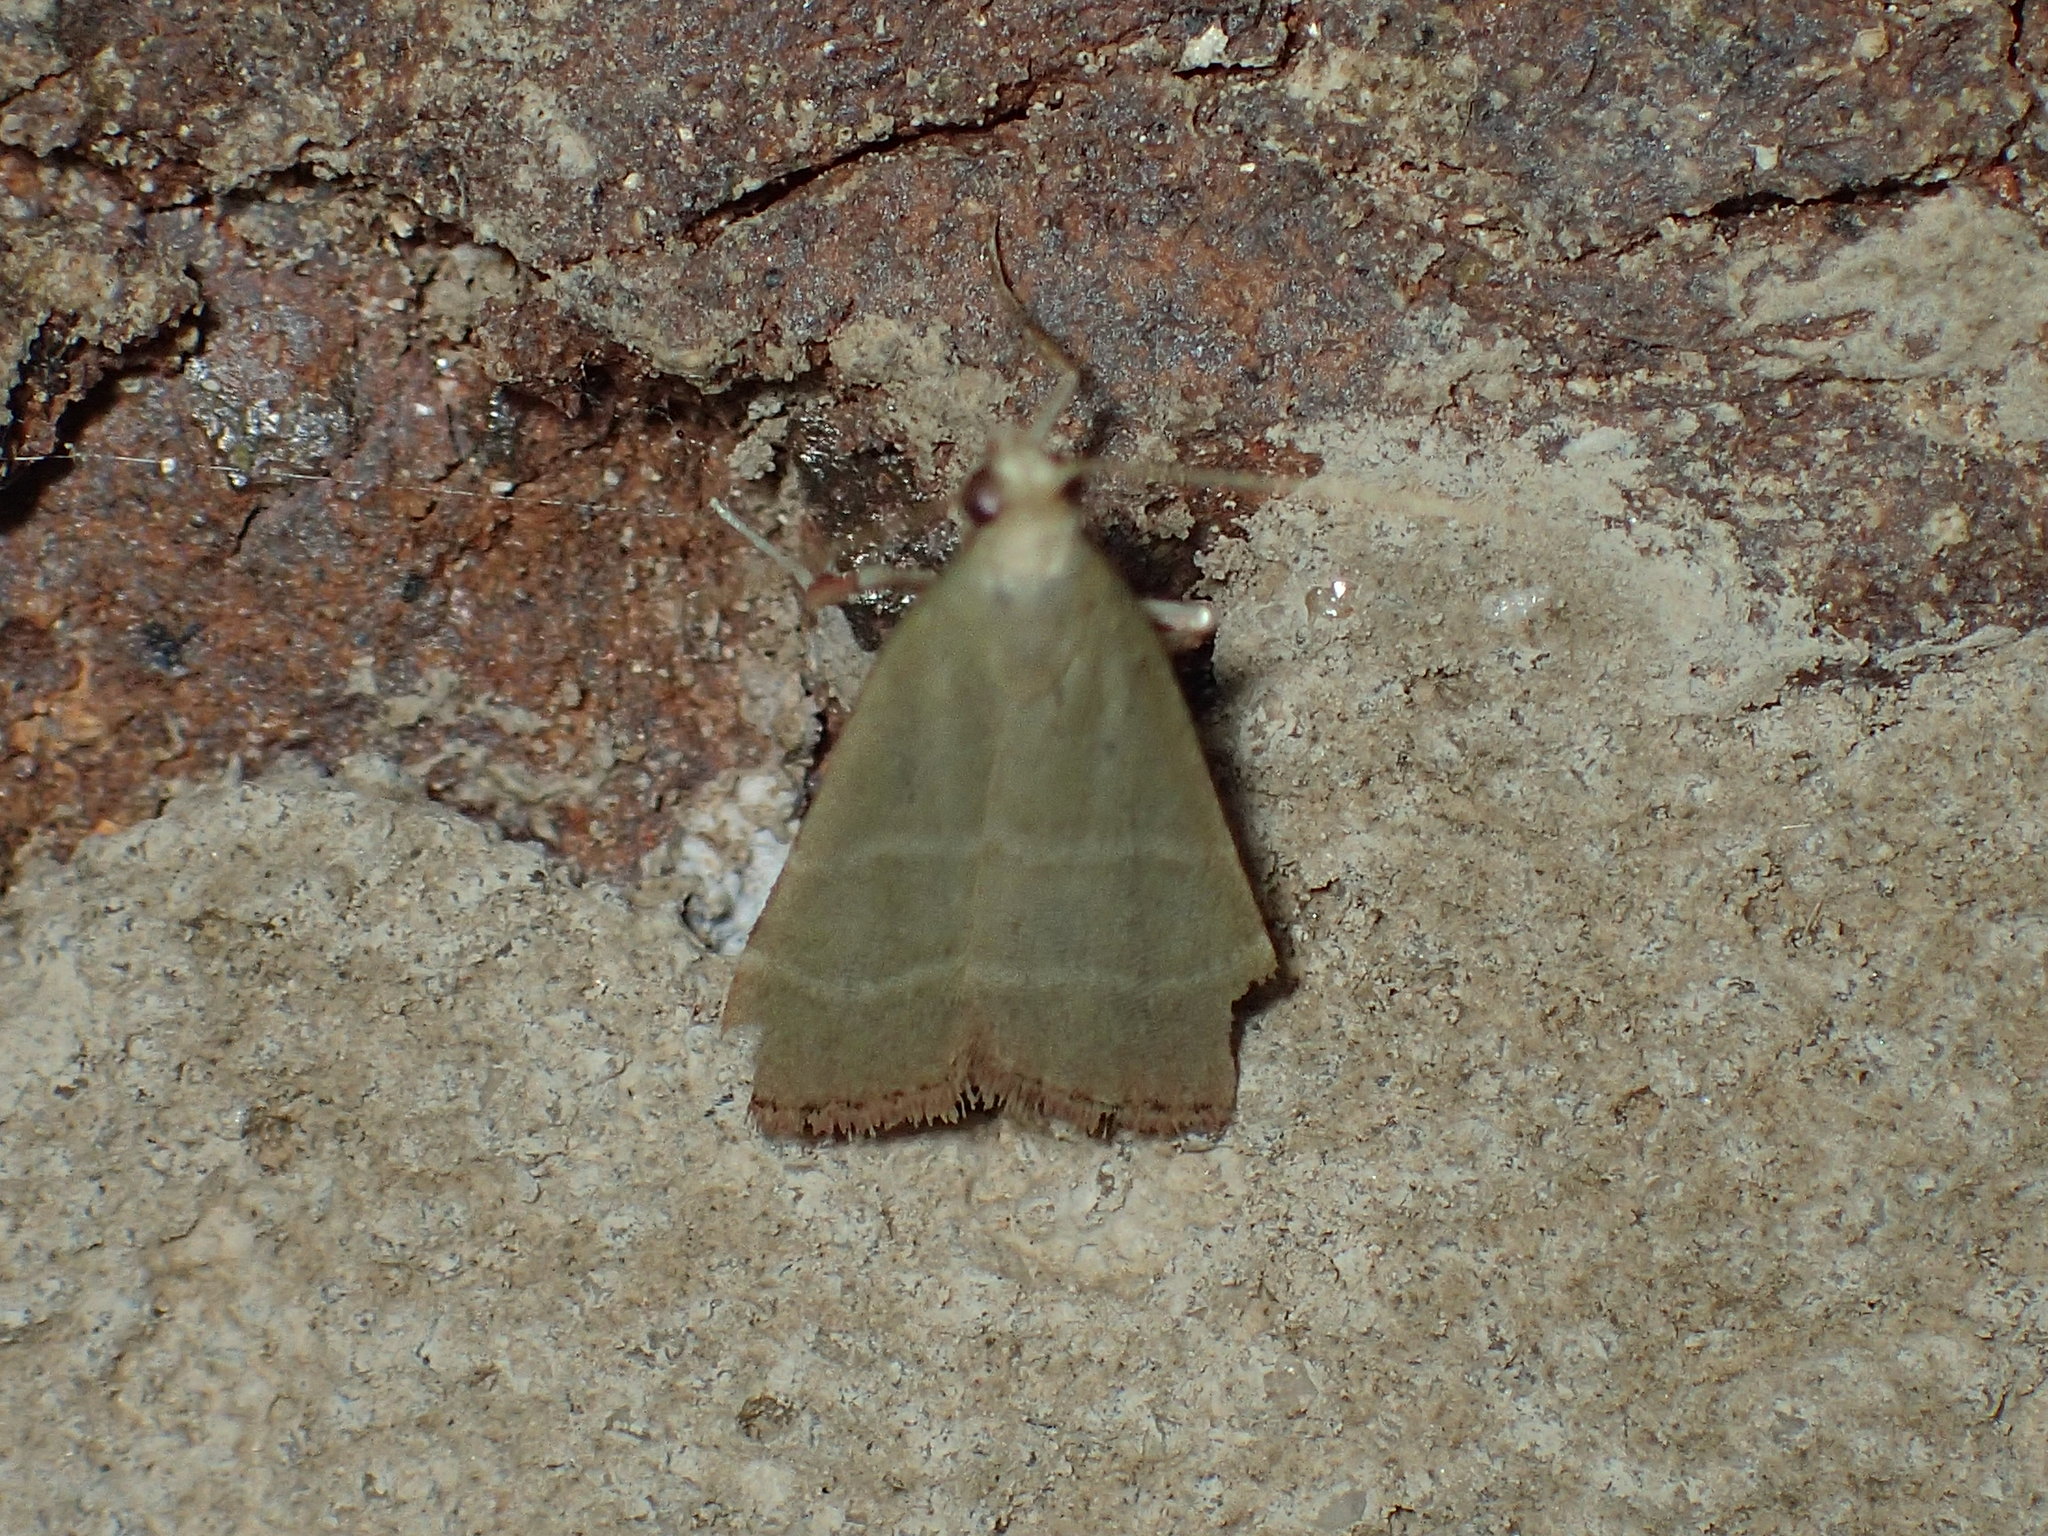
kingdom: Animalia
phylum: Arthropoda
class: Insecta
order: Lepidoptera
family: Pyralidae
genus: Arta
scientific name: Arta olivalis
